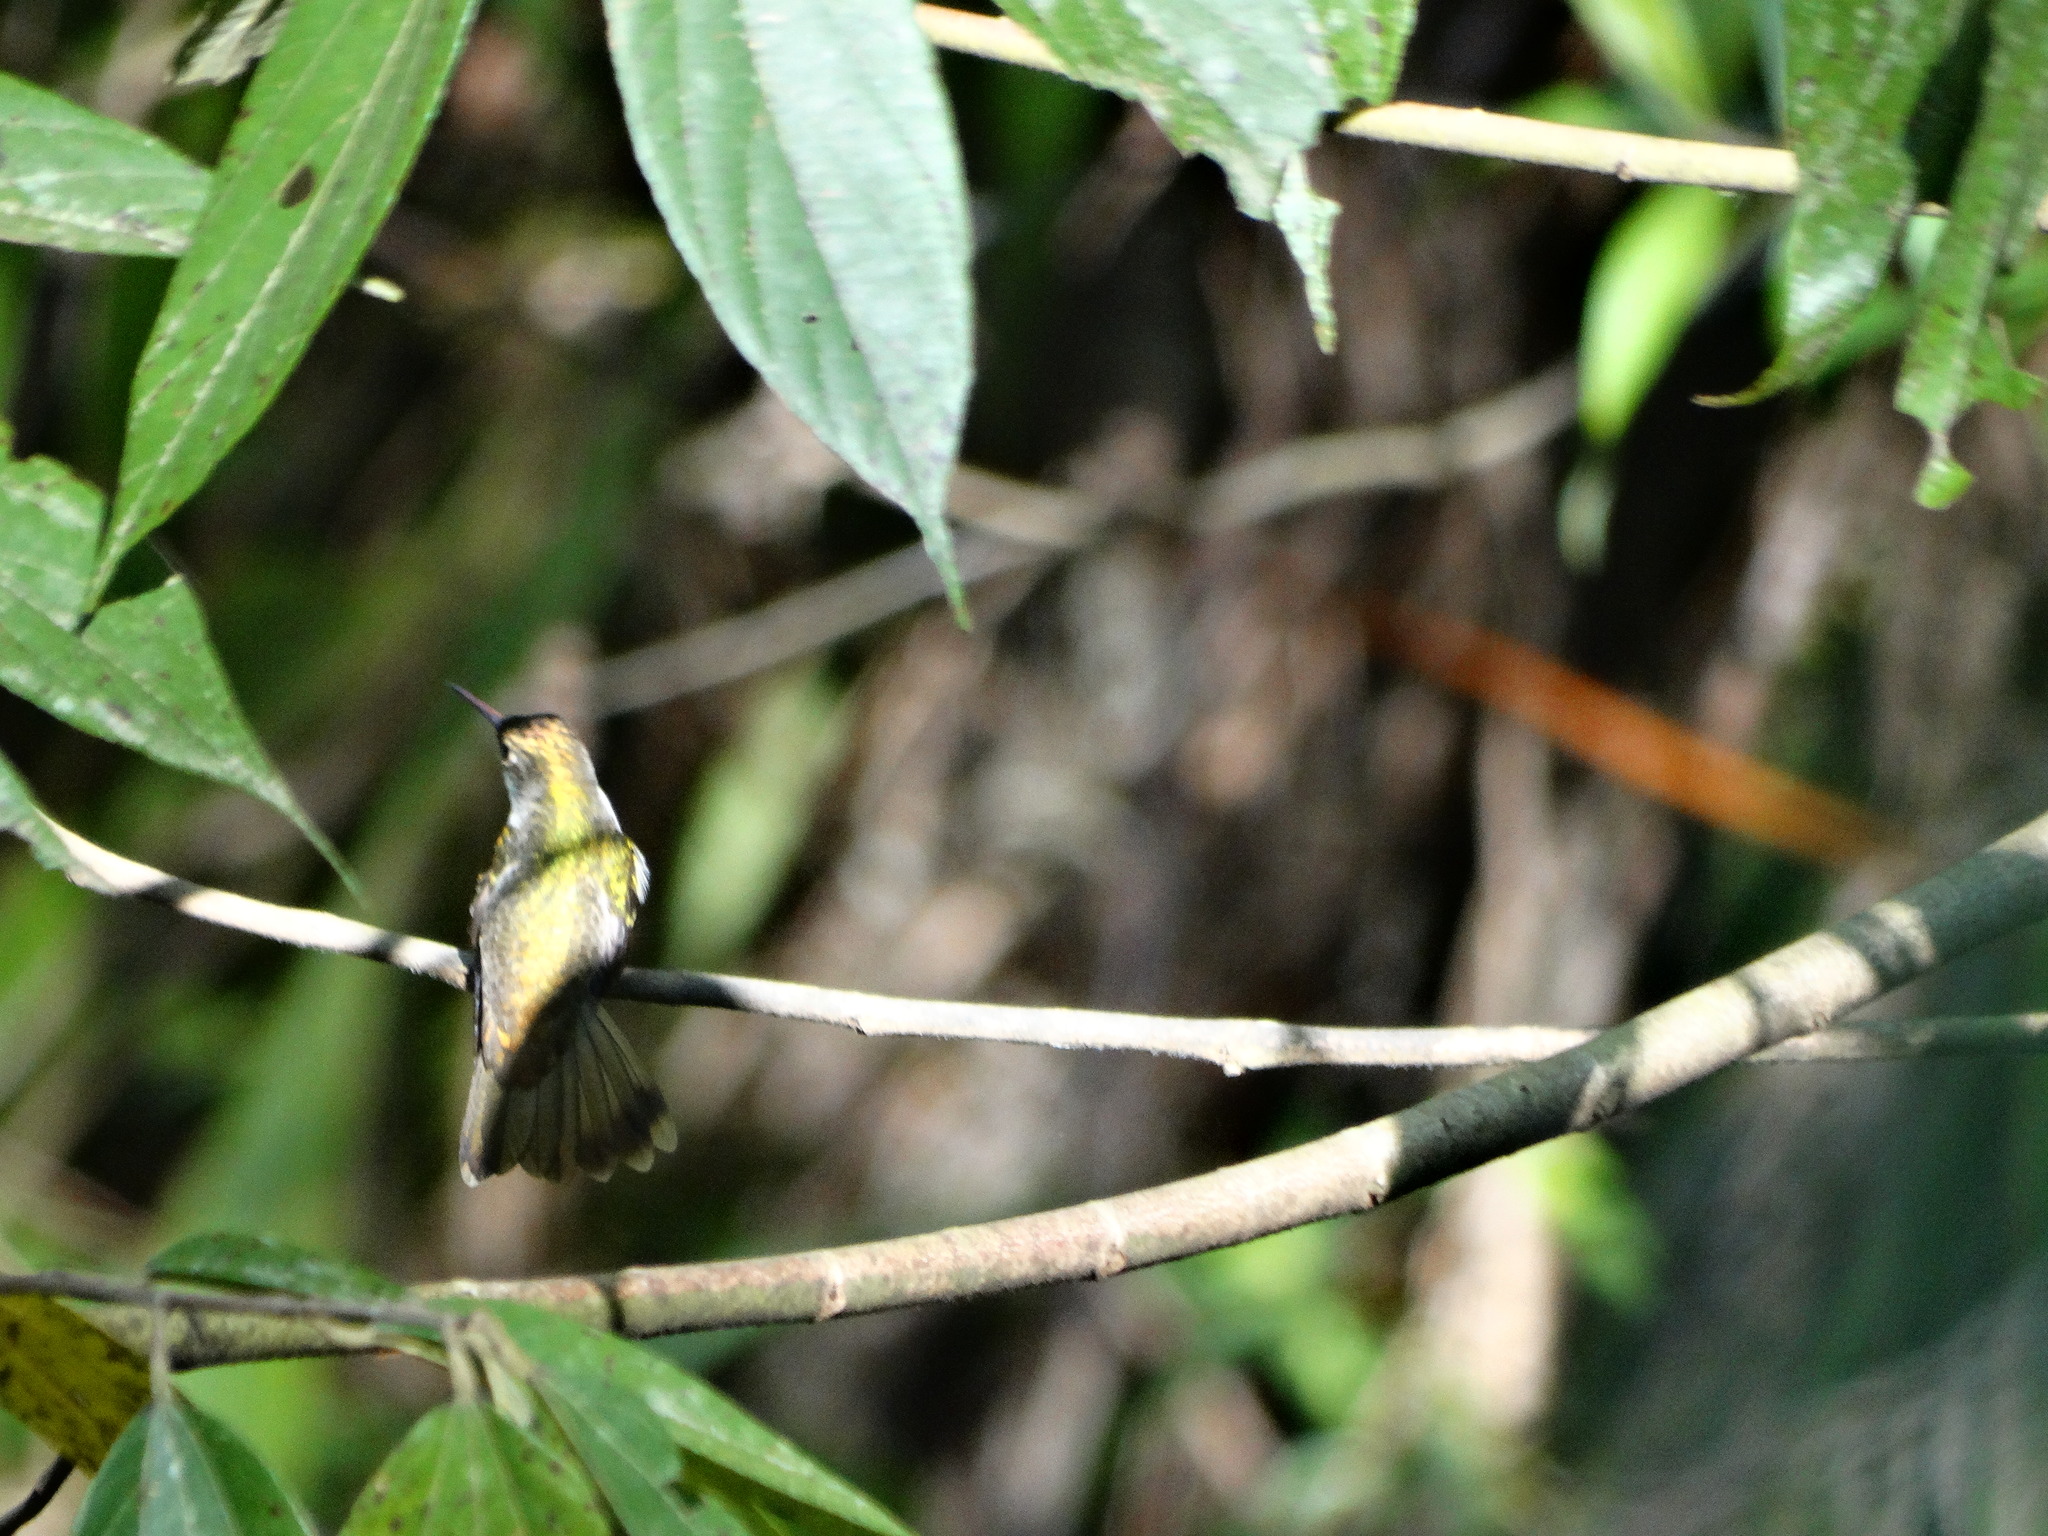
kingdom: Animalia
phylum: Chordata
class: Aves
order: Apodiformes
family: Trochilidae
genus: Chlorestes
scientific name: Chlorestes candida
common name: White-bellied emerald
